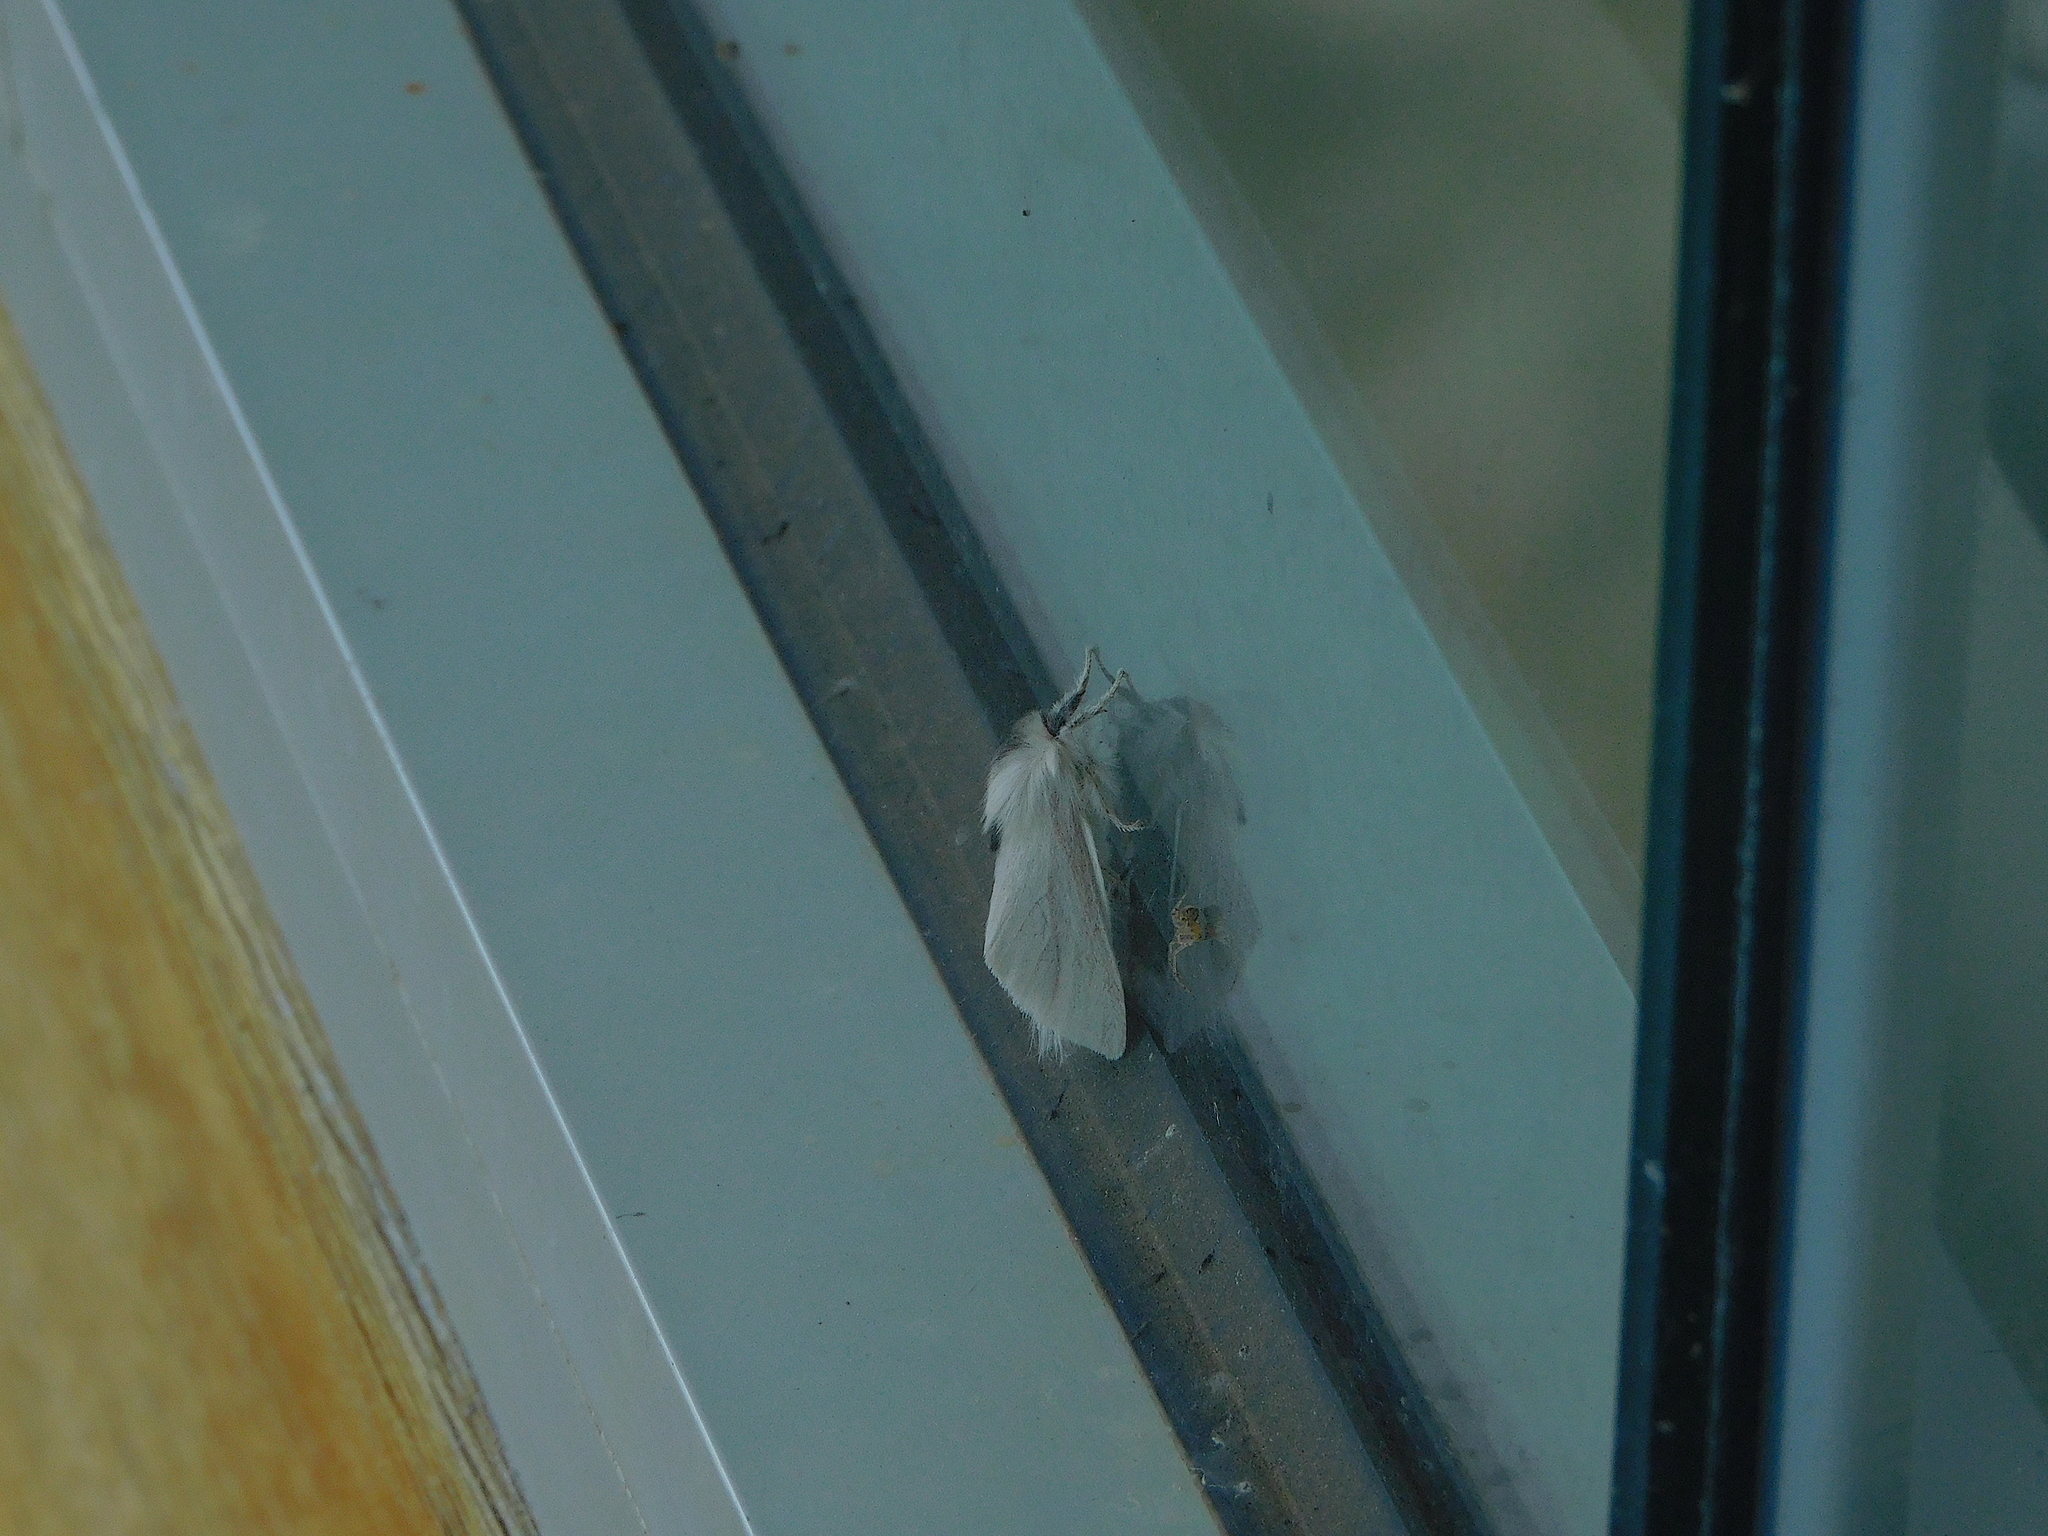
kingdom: Animalia
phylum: Arthropoda
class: Insecta
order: Lepidoptera
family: Notodontidae
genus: Trichiocercus
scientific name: Trichiocercus sparshalli
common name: Long-tailed satin
